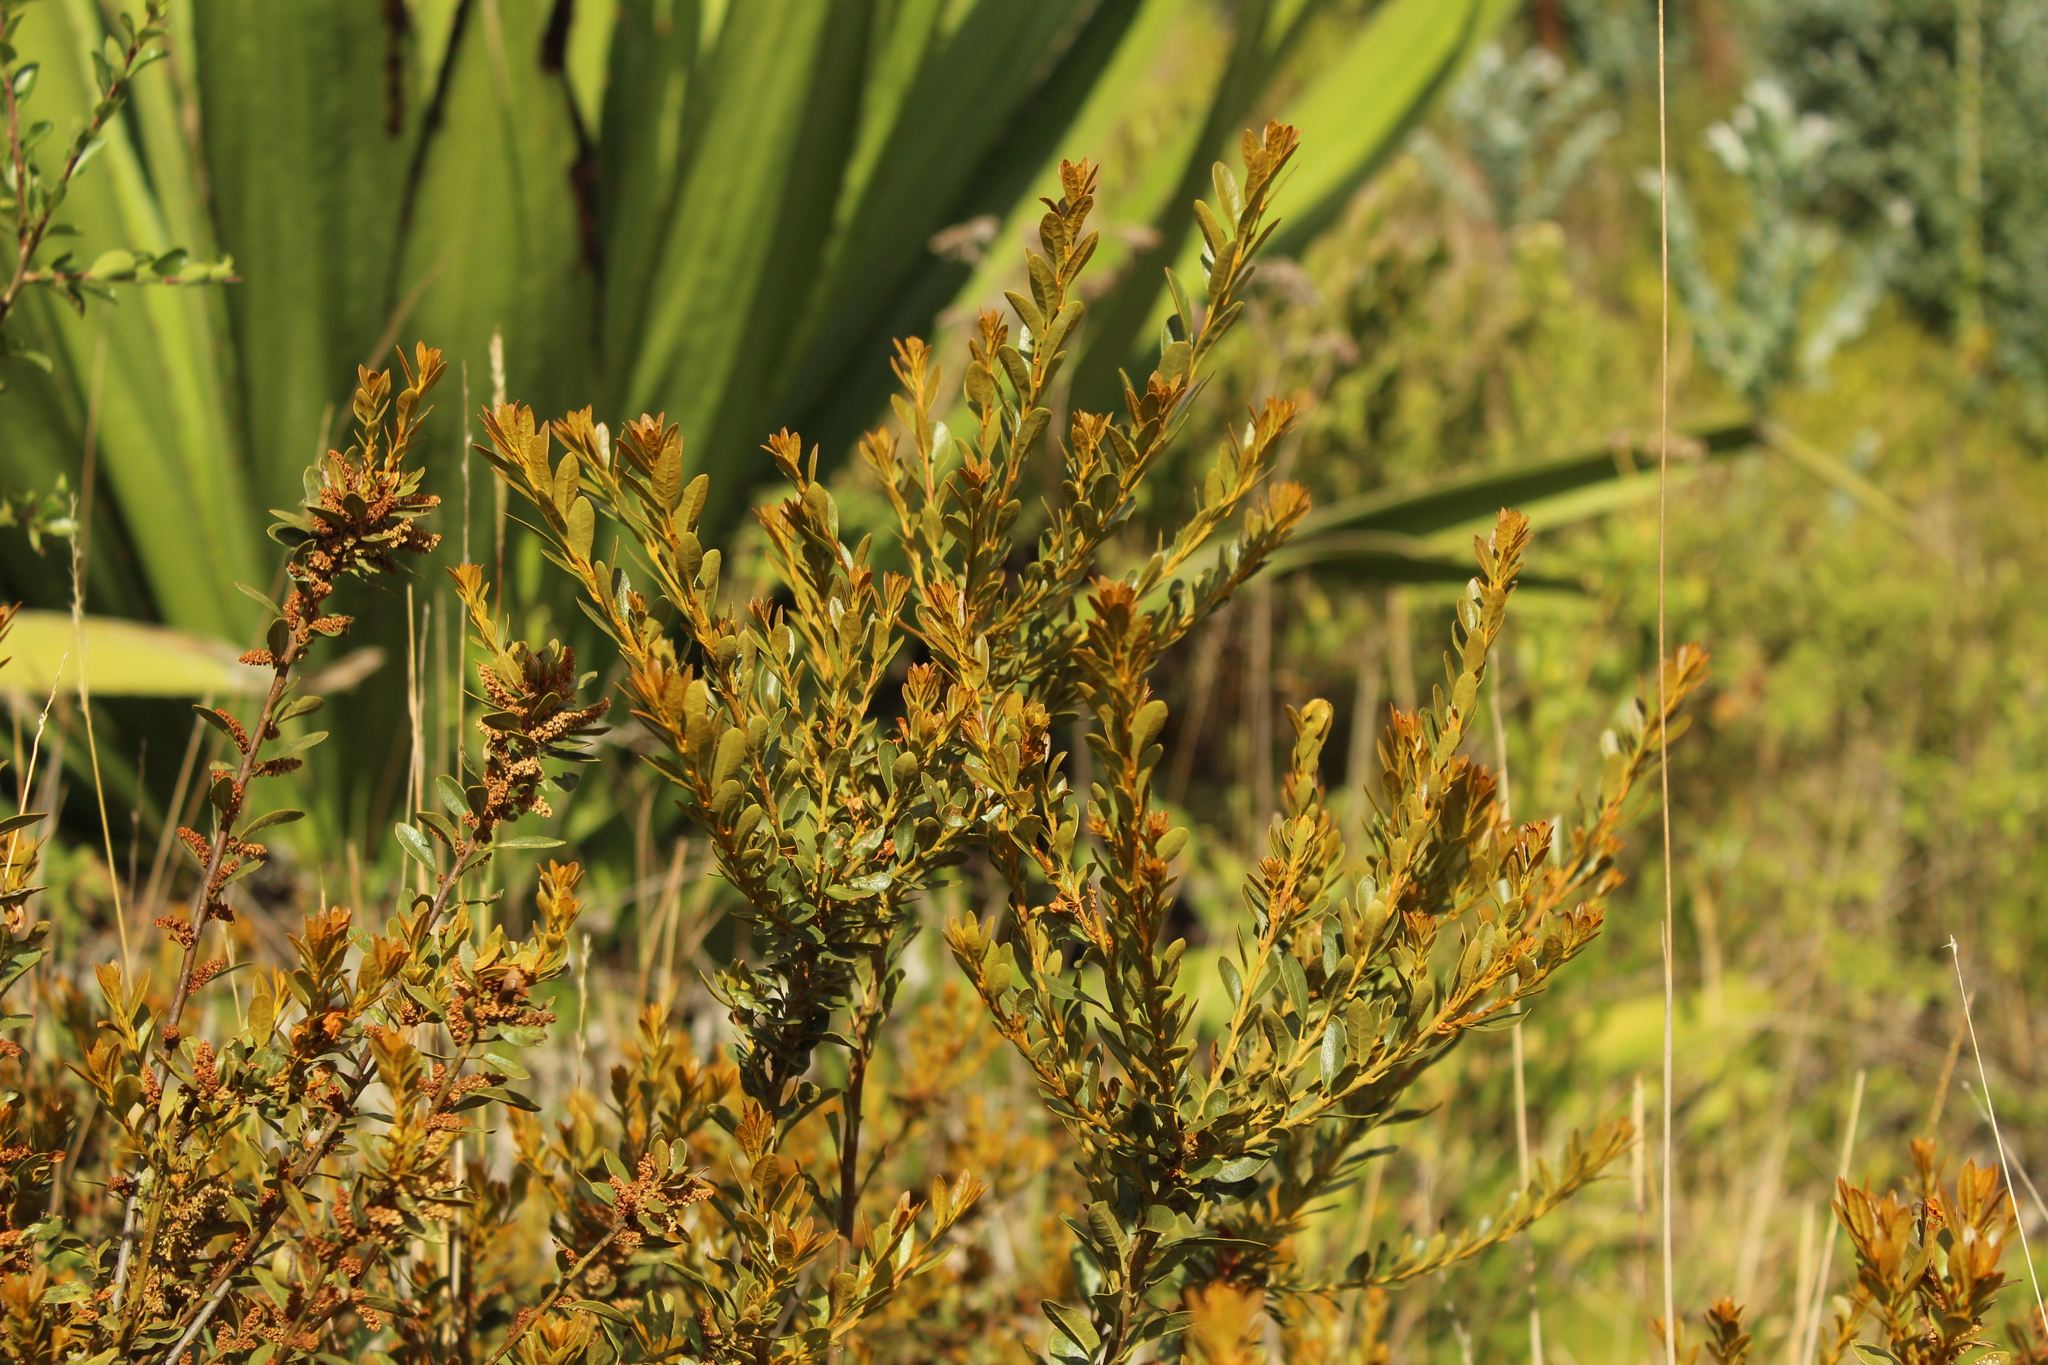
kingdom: Plantae
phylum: Tracheophyta
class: Magnoliopsida
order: Fagales
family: Myricaceae
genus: Morella
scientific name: Morella parvifolia
